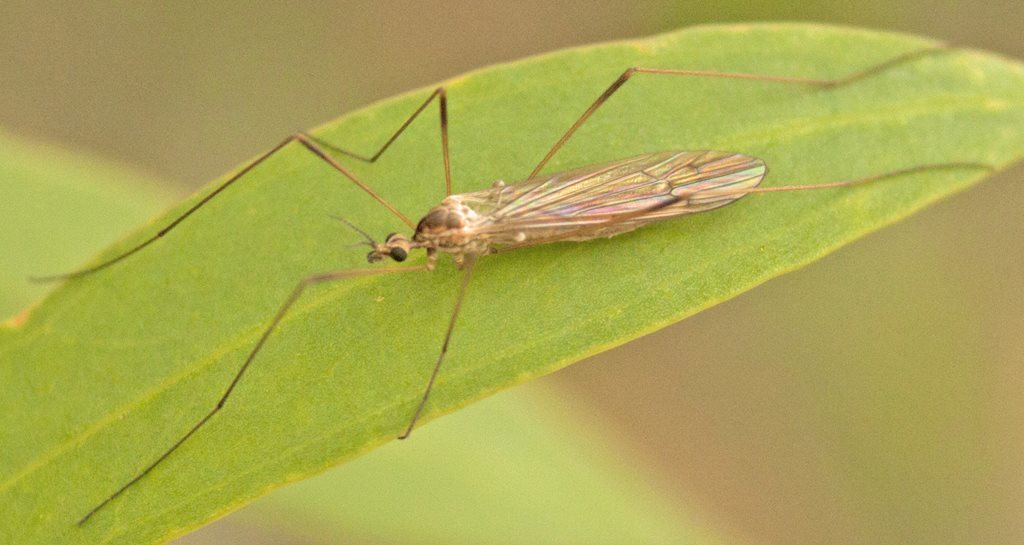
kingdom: Animalia
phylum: Arthropoda
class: Insecta
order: Diptera
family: Limoniidae
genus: Symplecta
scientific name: Symplecta pilipes
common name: Crane fly
